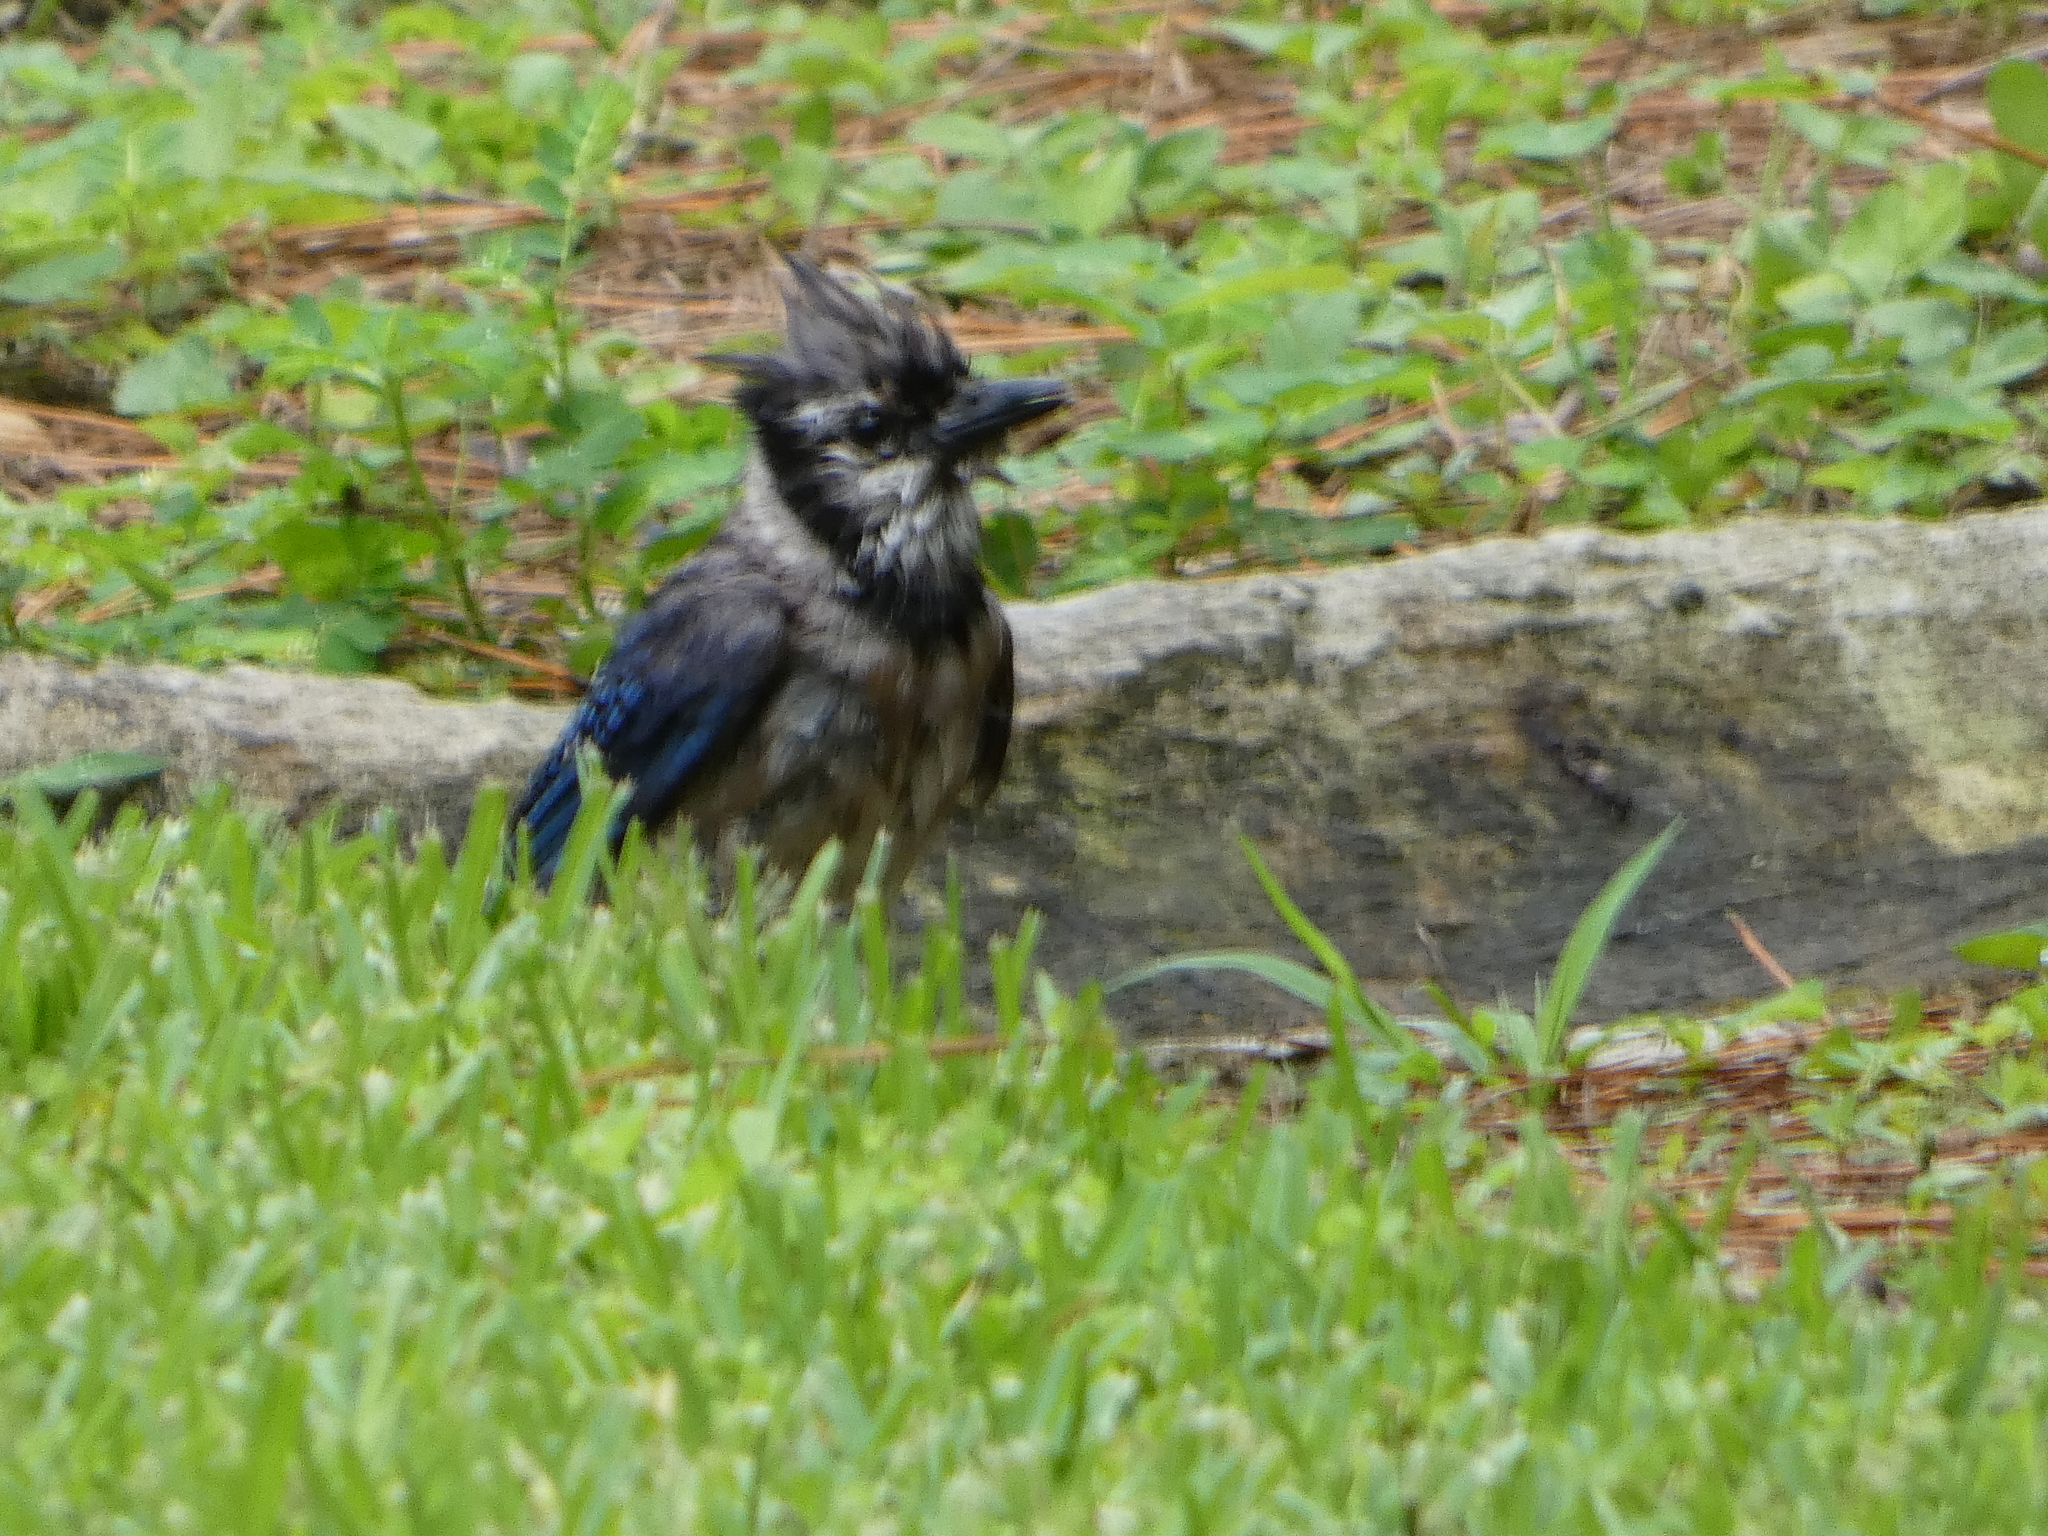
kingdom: Animalia
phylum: Chordata
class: Aves
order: Passeriformes
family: Corvidae
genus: Cyanocitta
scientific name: Cyanocitta cristata
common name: Blue jay
